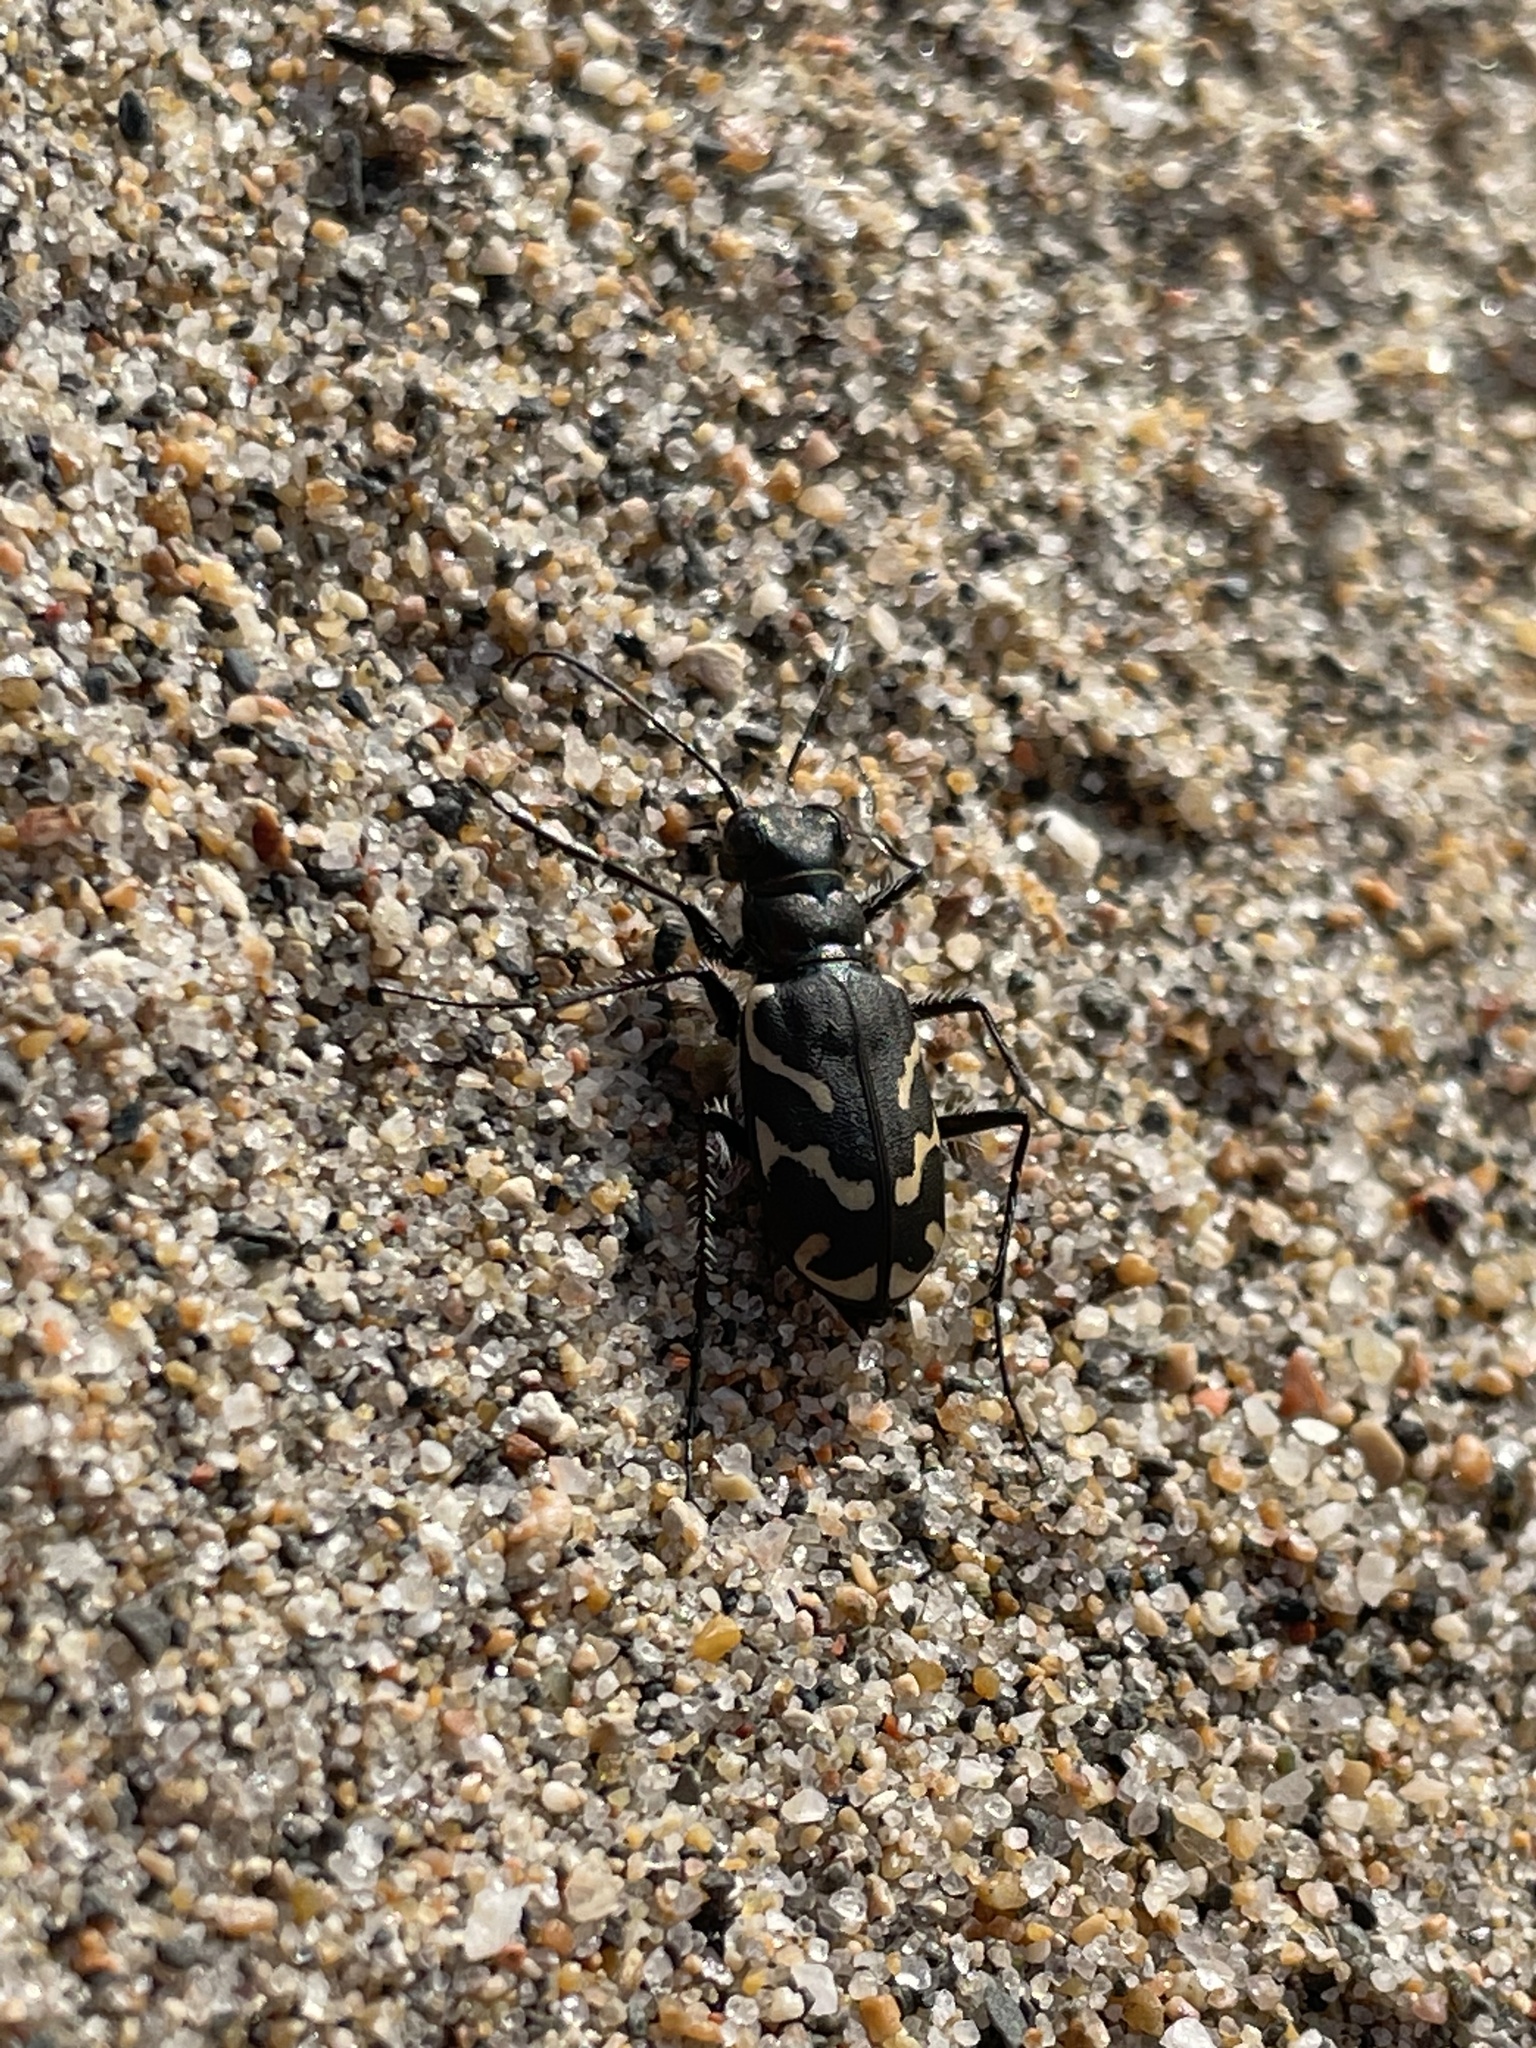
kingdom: Animalia
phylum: Arthropoda
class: Insecta
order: Coleoptera
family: Carabidae
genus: Cicindela
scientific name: Cicindela tranquebarica
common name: Oblique-lined tiger beetle
